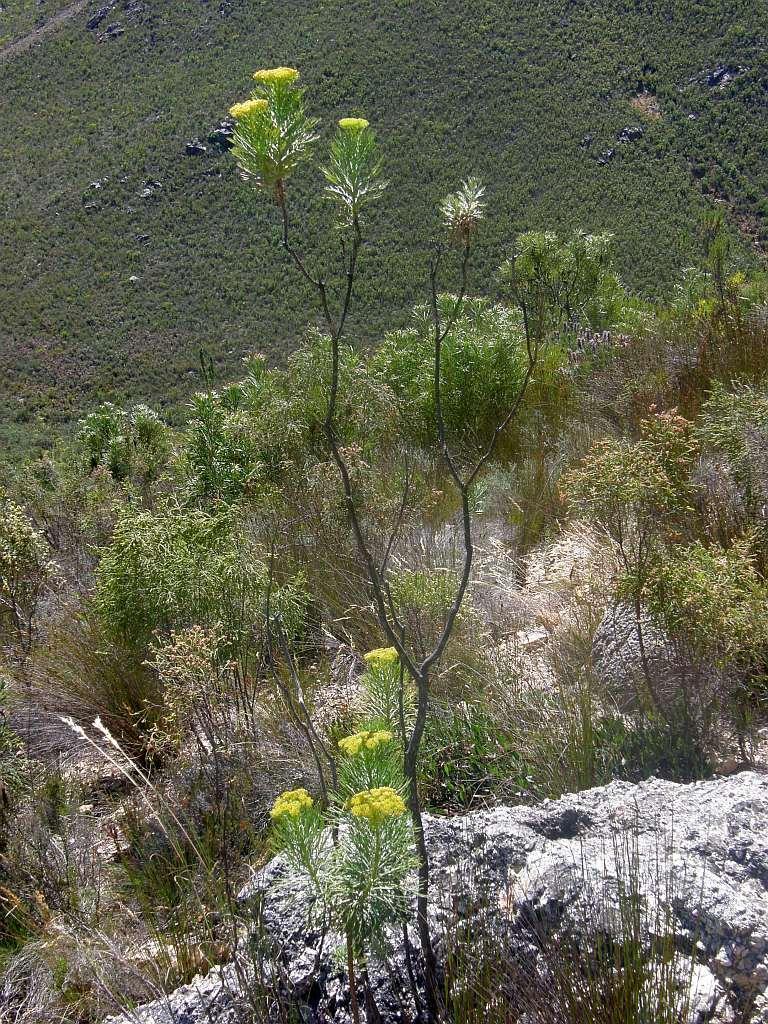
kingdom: Plantae
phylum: Tracheophyta
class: Magnoliopsida
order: Asterales
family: Asteraceae
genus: Hymenolepis
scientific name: Hymenolepis crithmifolia
